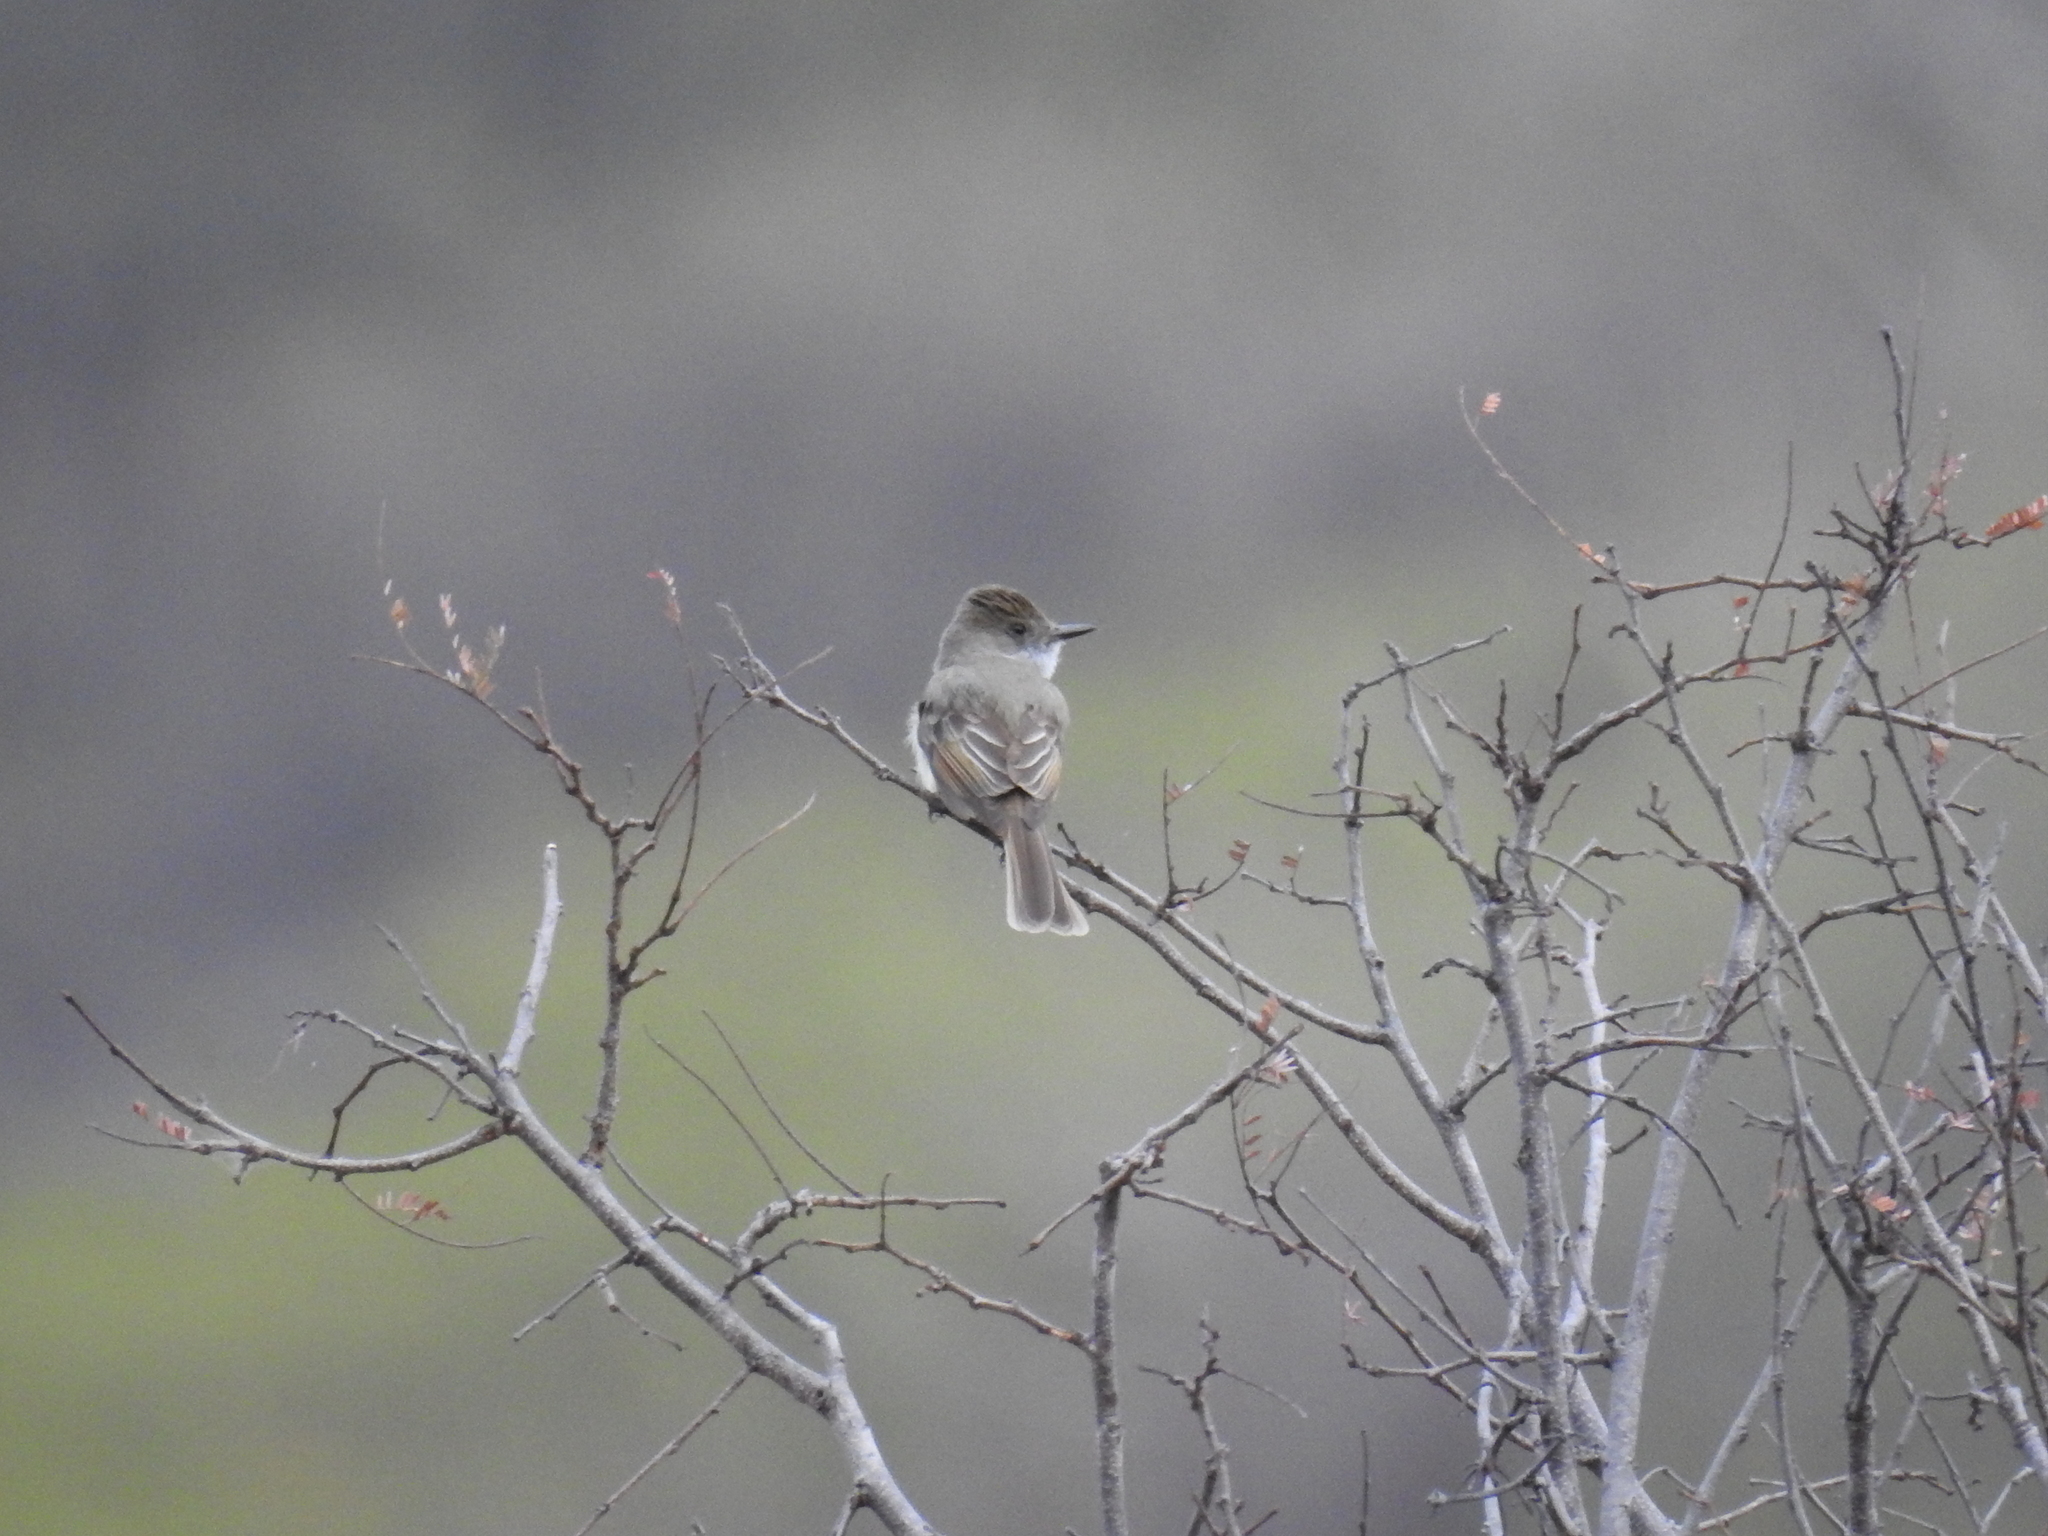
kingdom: Animalia
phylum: Chordata
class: Aves
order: Passeriformes
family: Tyrannidae
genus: Myiarchus
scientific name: Myiarchus tuberculifer
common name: Dusky-capped flycatcher
